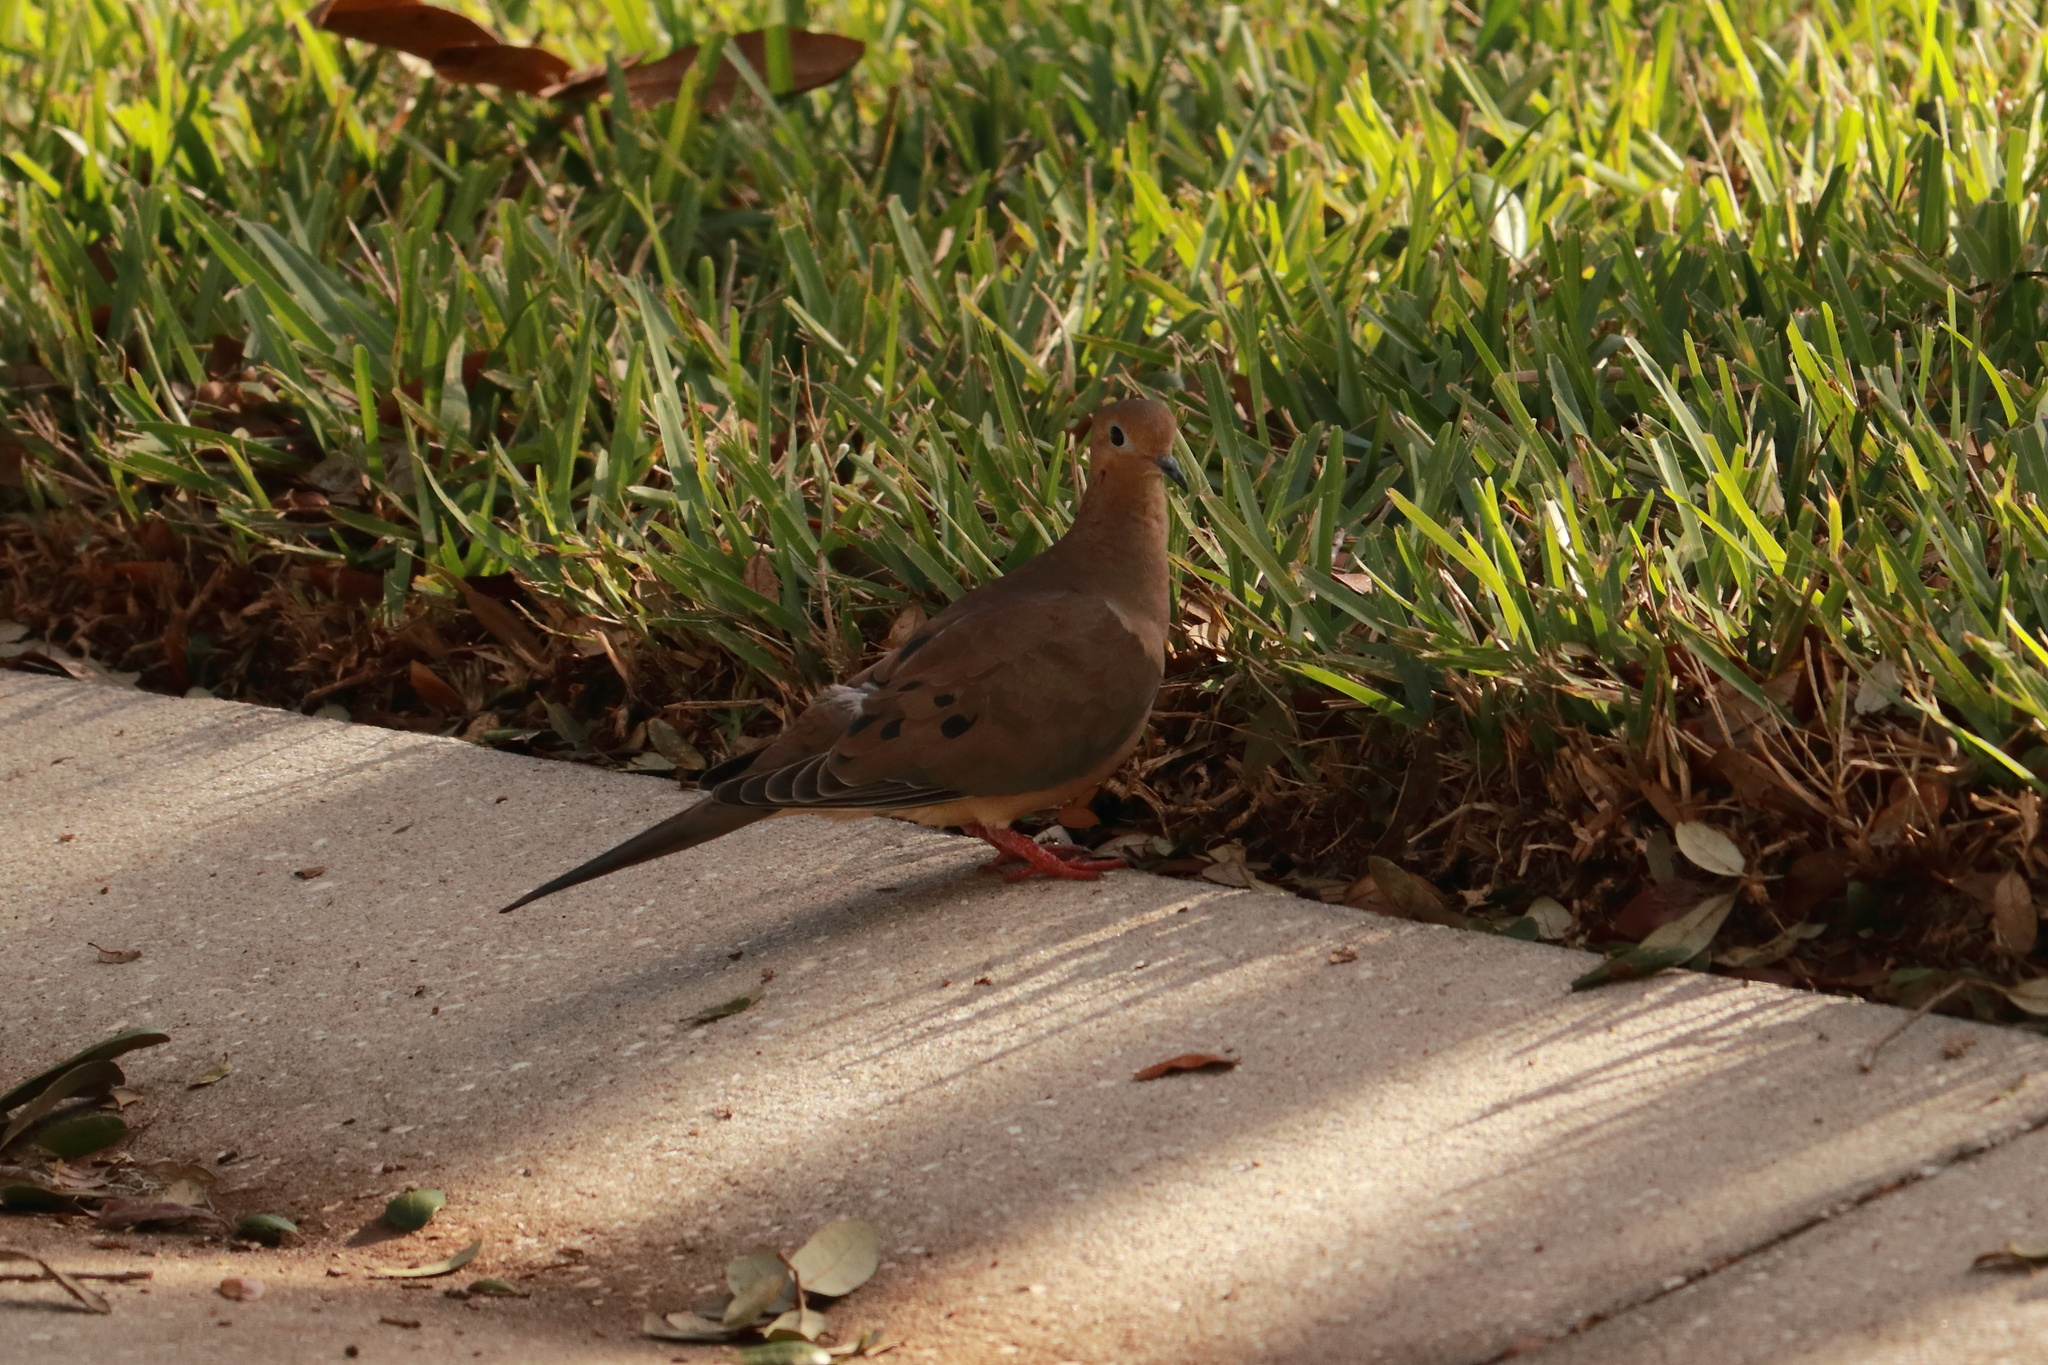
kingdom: Animalia
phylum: Chordata
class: Aves
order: Columbiformes
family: Columbidae
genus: Zenaida
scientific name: Zenaida macroura
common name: Mourning dove
